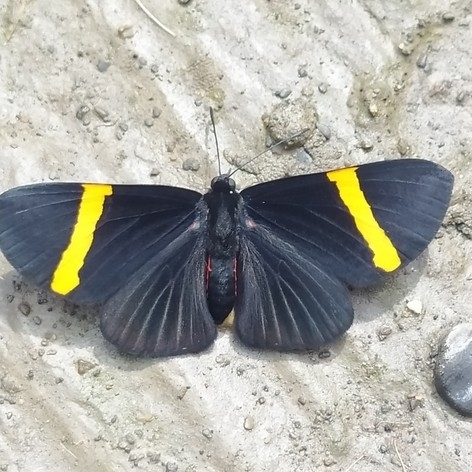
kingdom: Animalia
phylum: Arthropoda
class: Insecta
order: Lepidoptera
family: Lycaenidae
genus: Melanis
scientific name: Melanis
